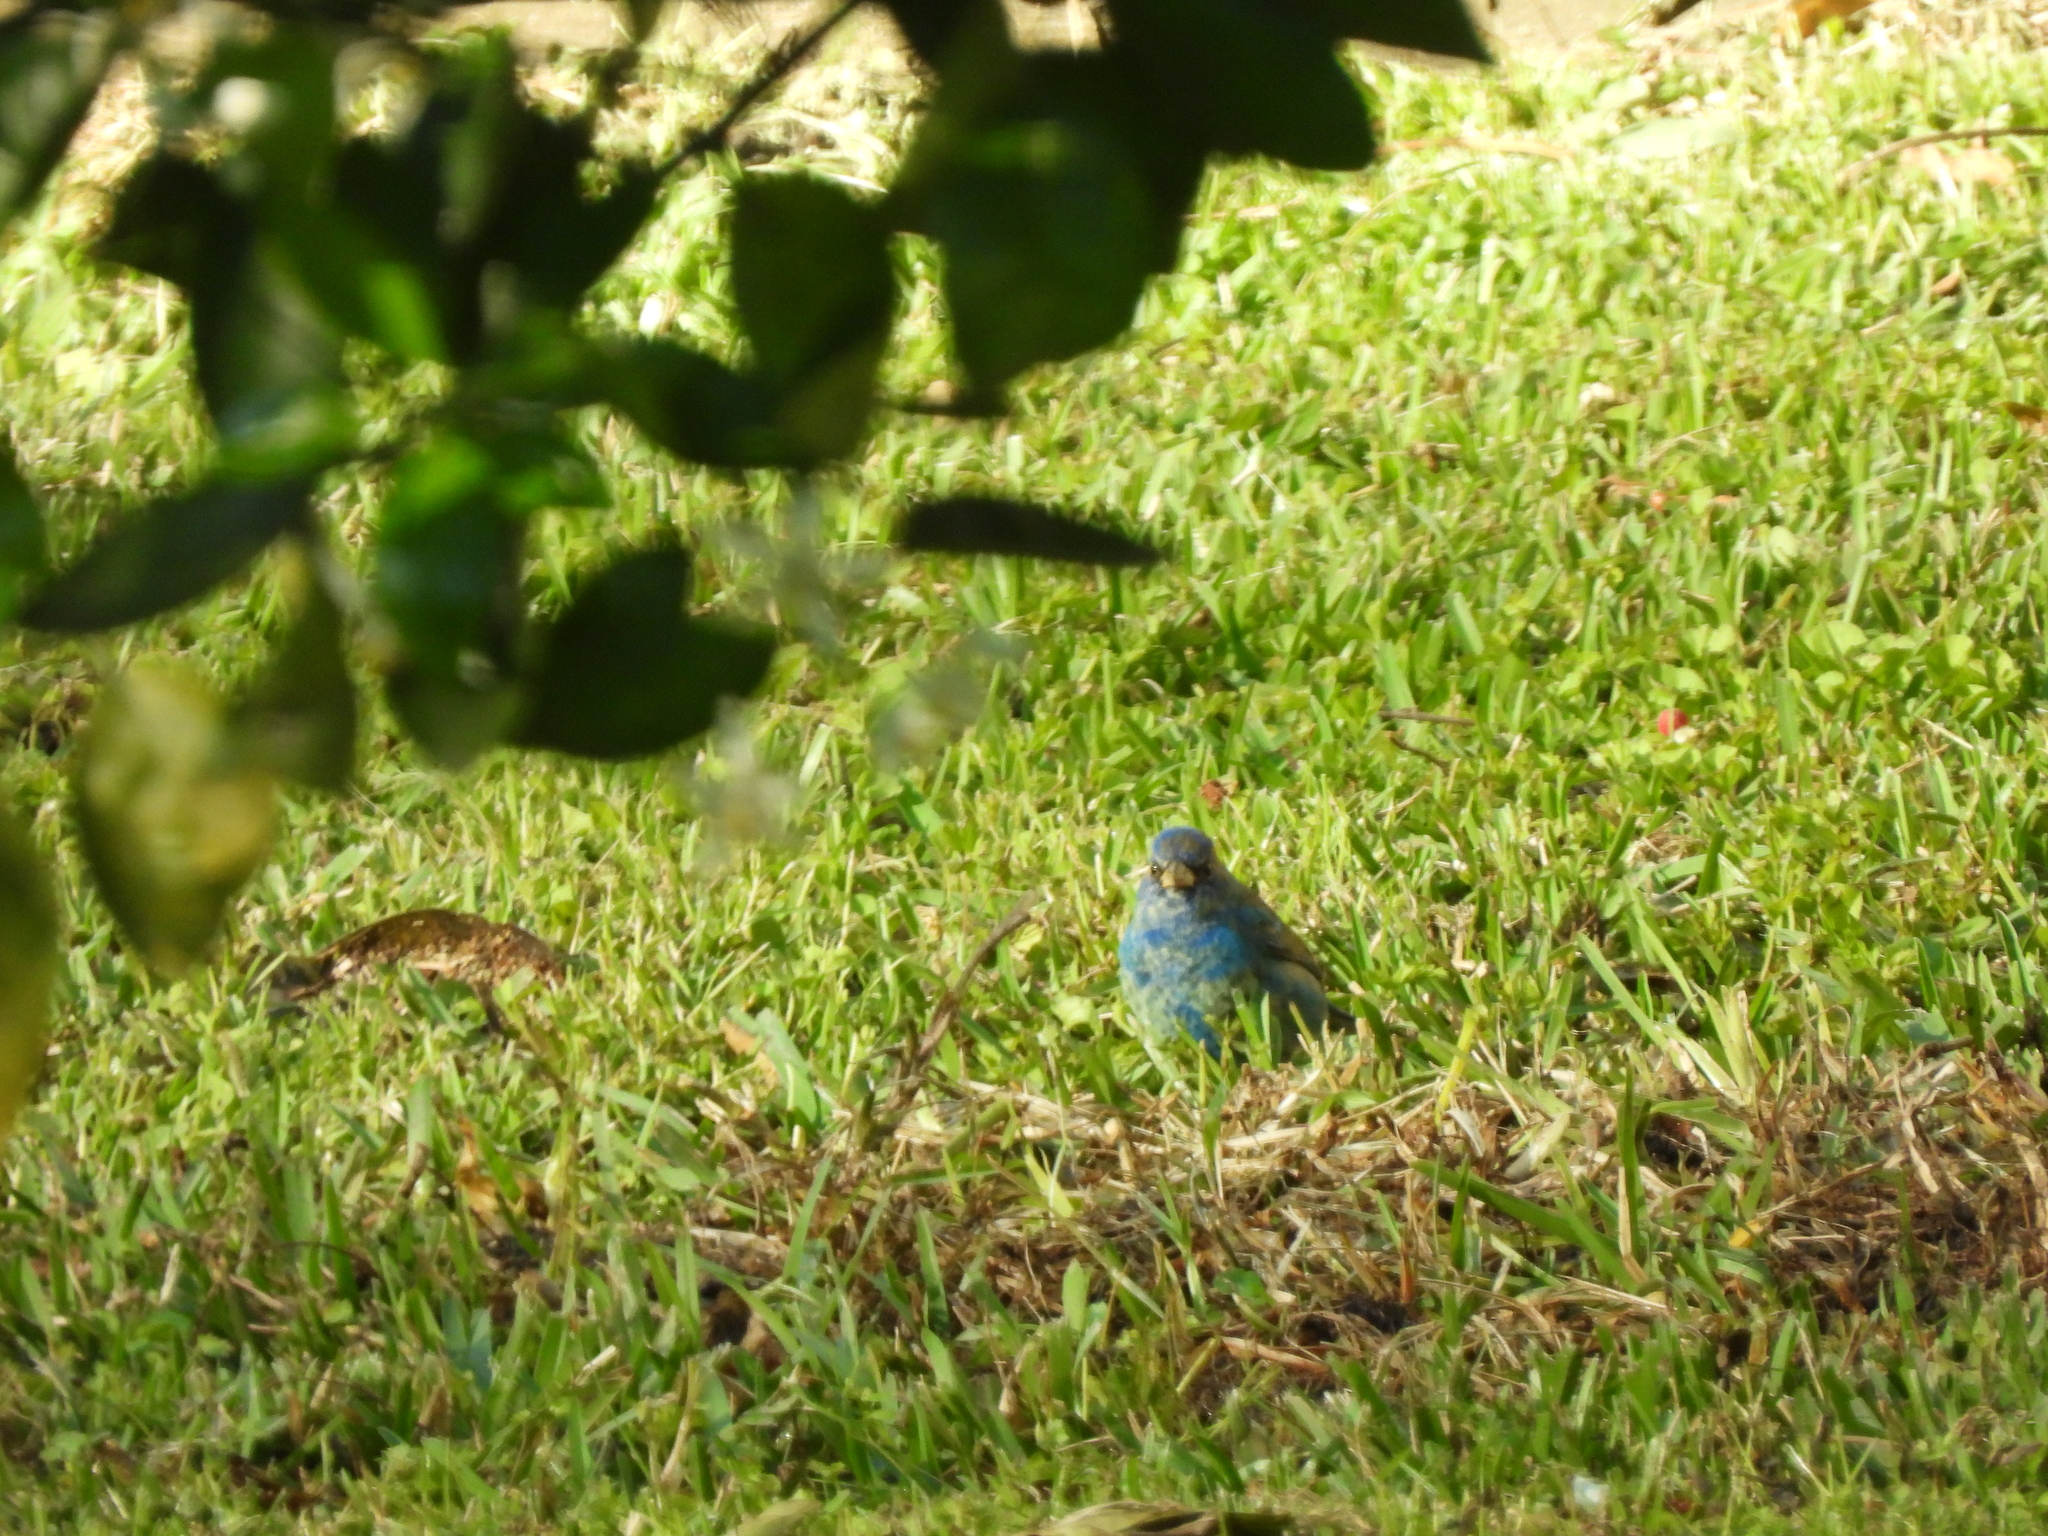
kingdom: Animalia
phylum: Chordata
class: Aves
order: Passeriformes
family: Cardinalidae
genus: Passerina
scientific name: Passerina cyanea
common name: Indigo bunting
